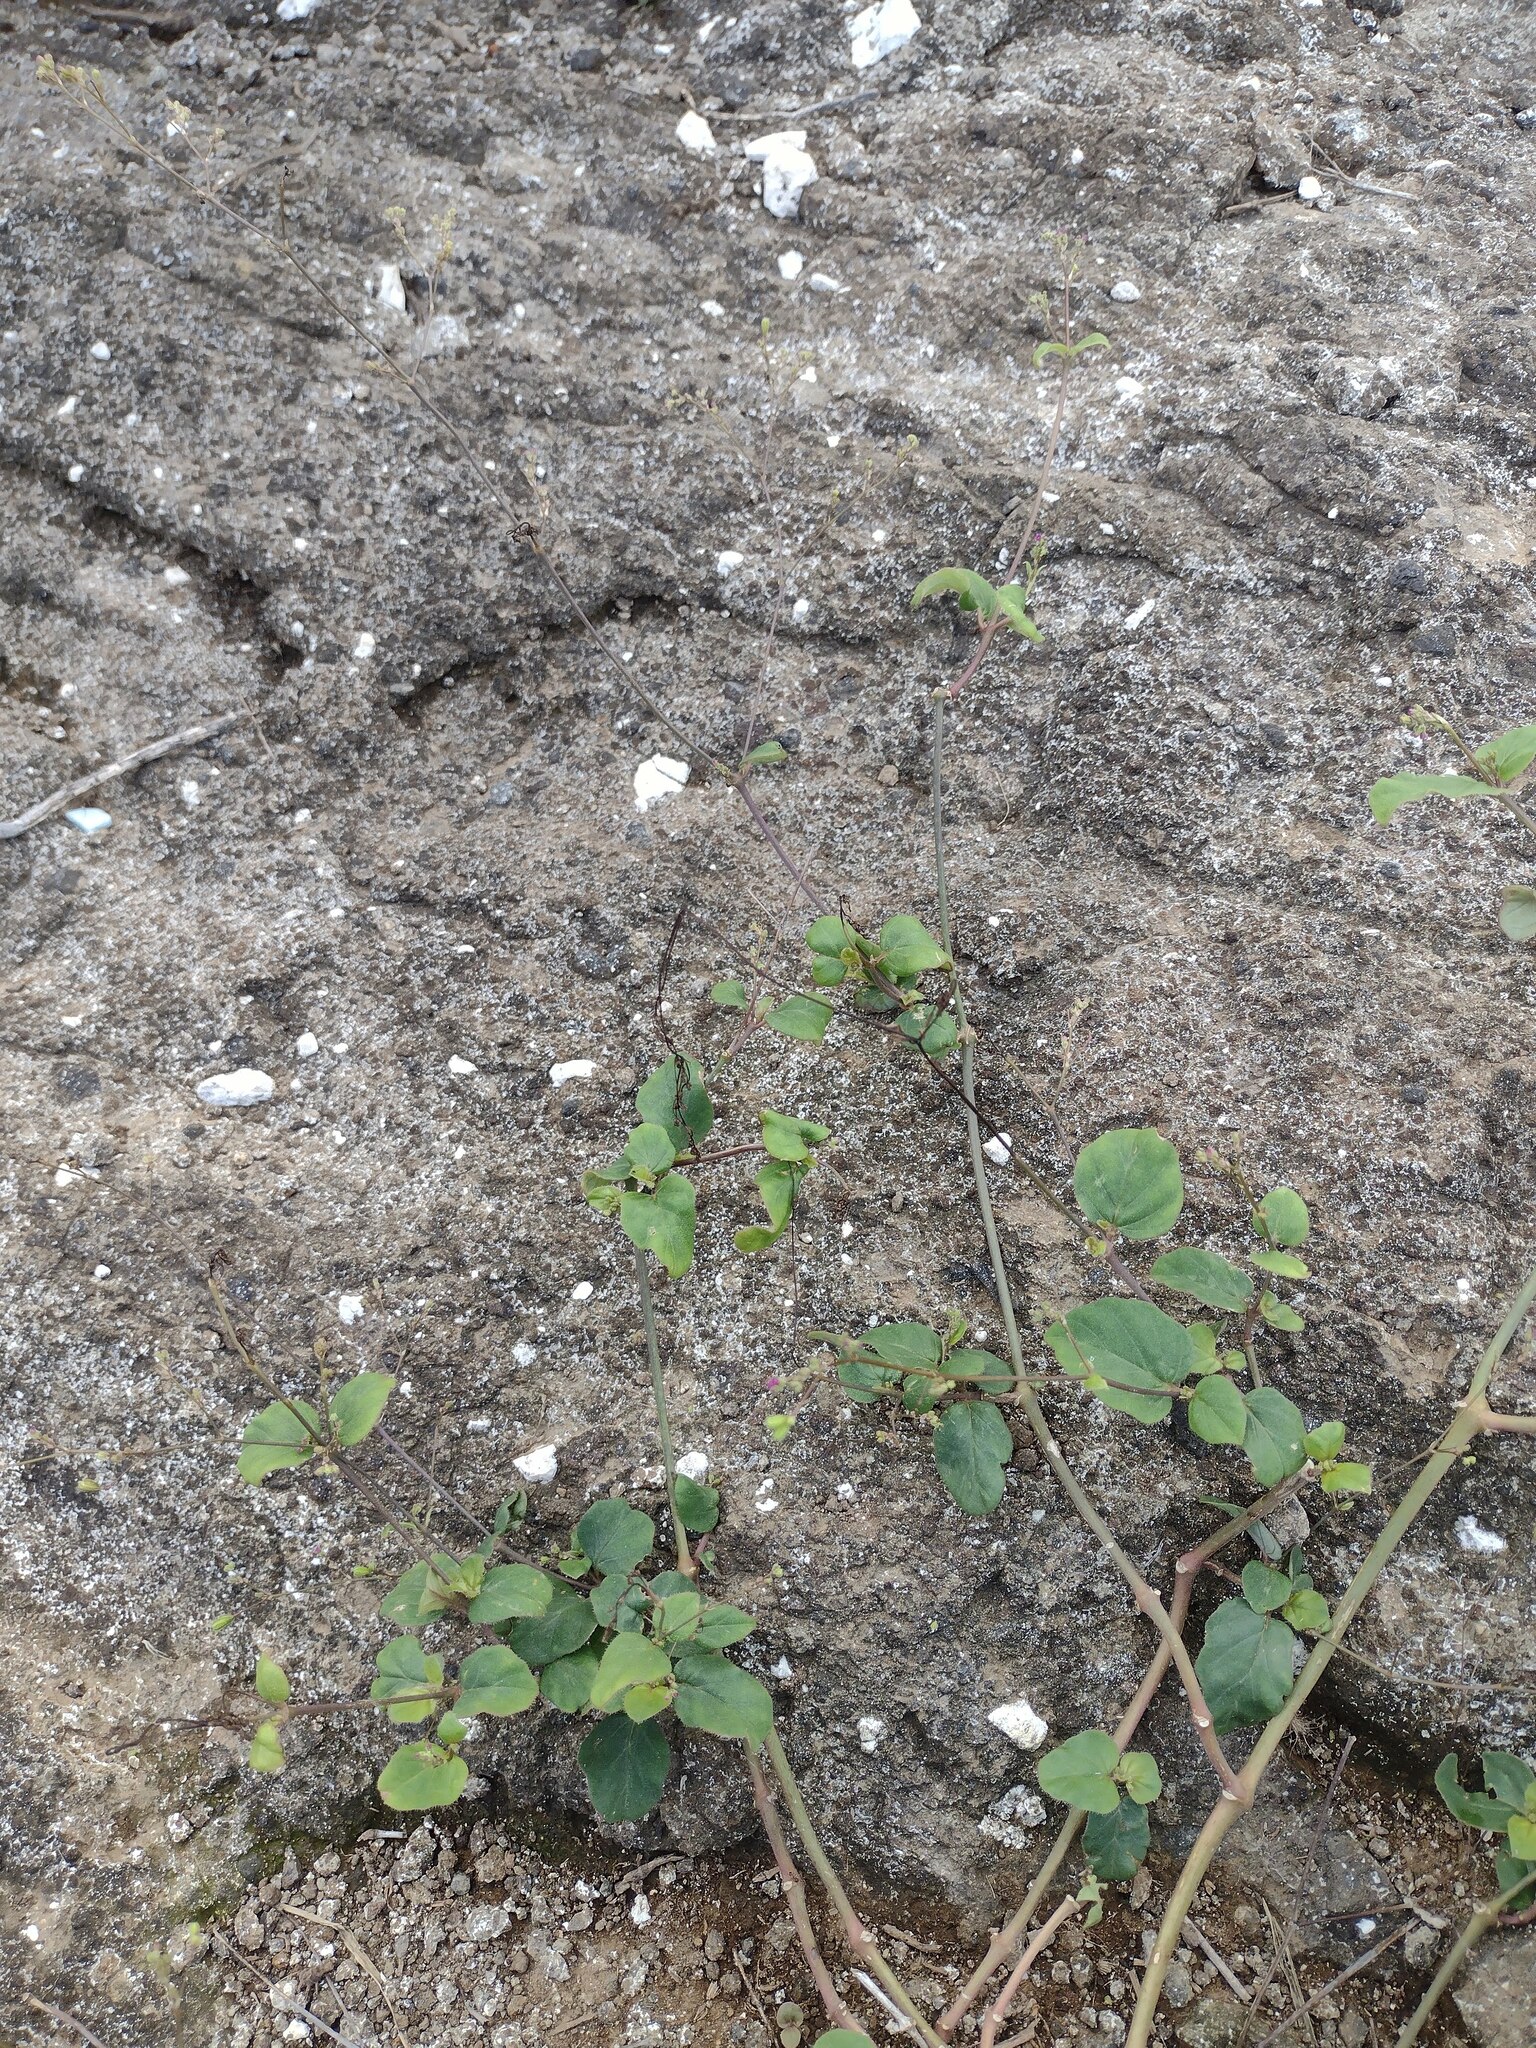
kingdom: Plantae
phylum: Tracheophyta
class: Magnoliopsida
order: Caryophyllales
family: Nyctaginaceae
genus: Boerhavia
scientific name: Boerhavia diffusa
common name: Red spiderling
